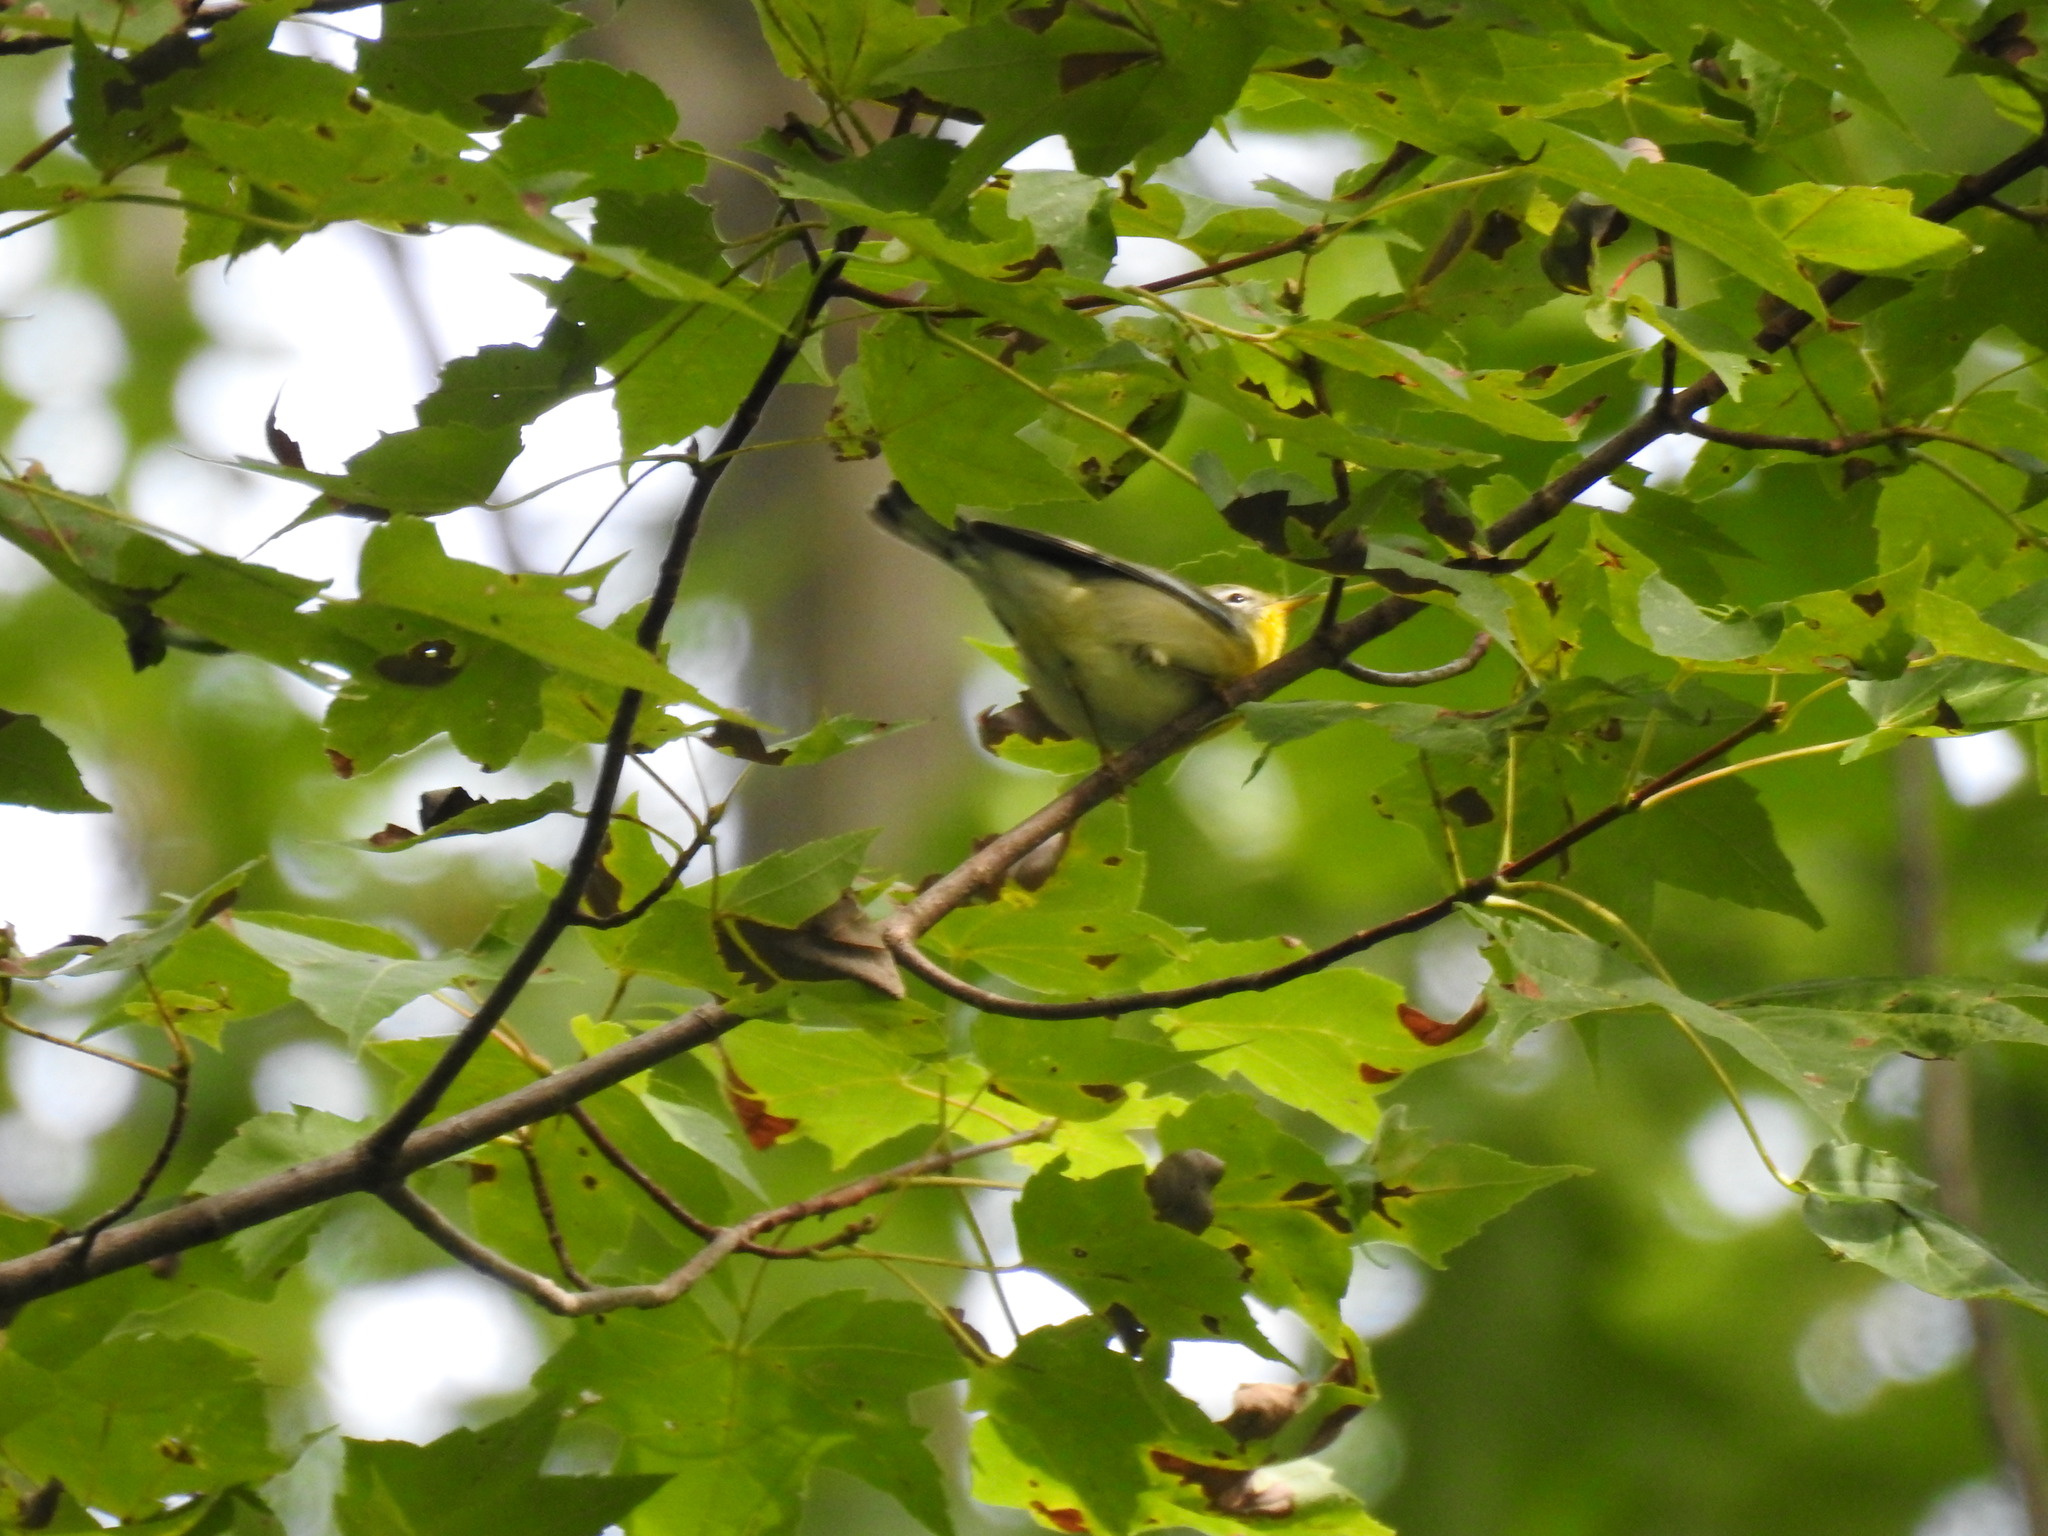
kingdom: Animalia
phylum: Chordata
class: Aves
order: Passeriformes
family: Parulidae
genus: Setophaga
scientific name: Setophaga americana
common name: Northern parula
